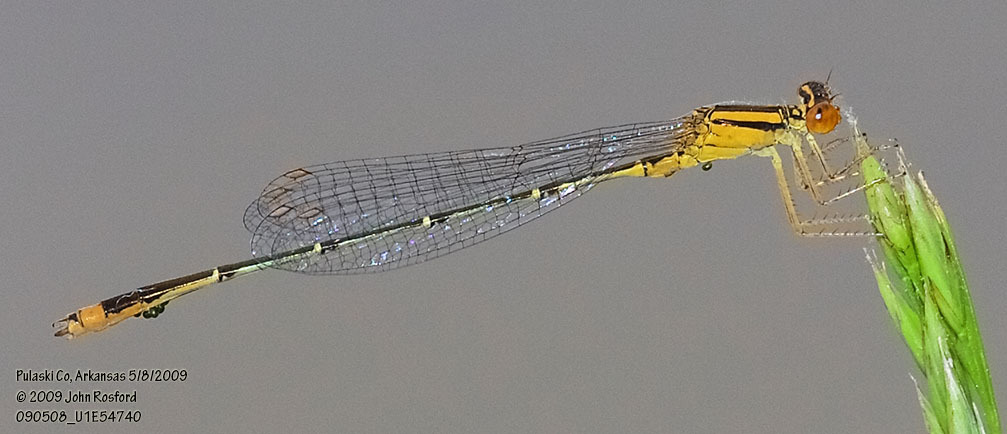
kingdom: Animalia
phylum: Arthropoda
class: Insecta
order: Odonata
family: Coenagrionidae
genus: Enallagma
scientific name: Enallagma signatum
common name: Orange bluet
